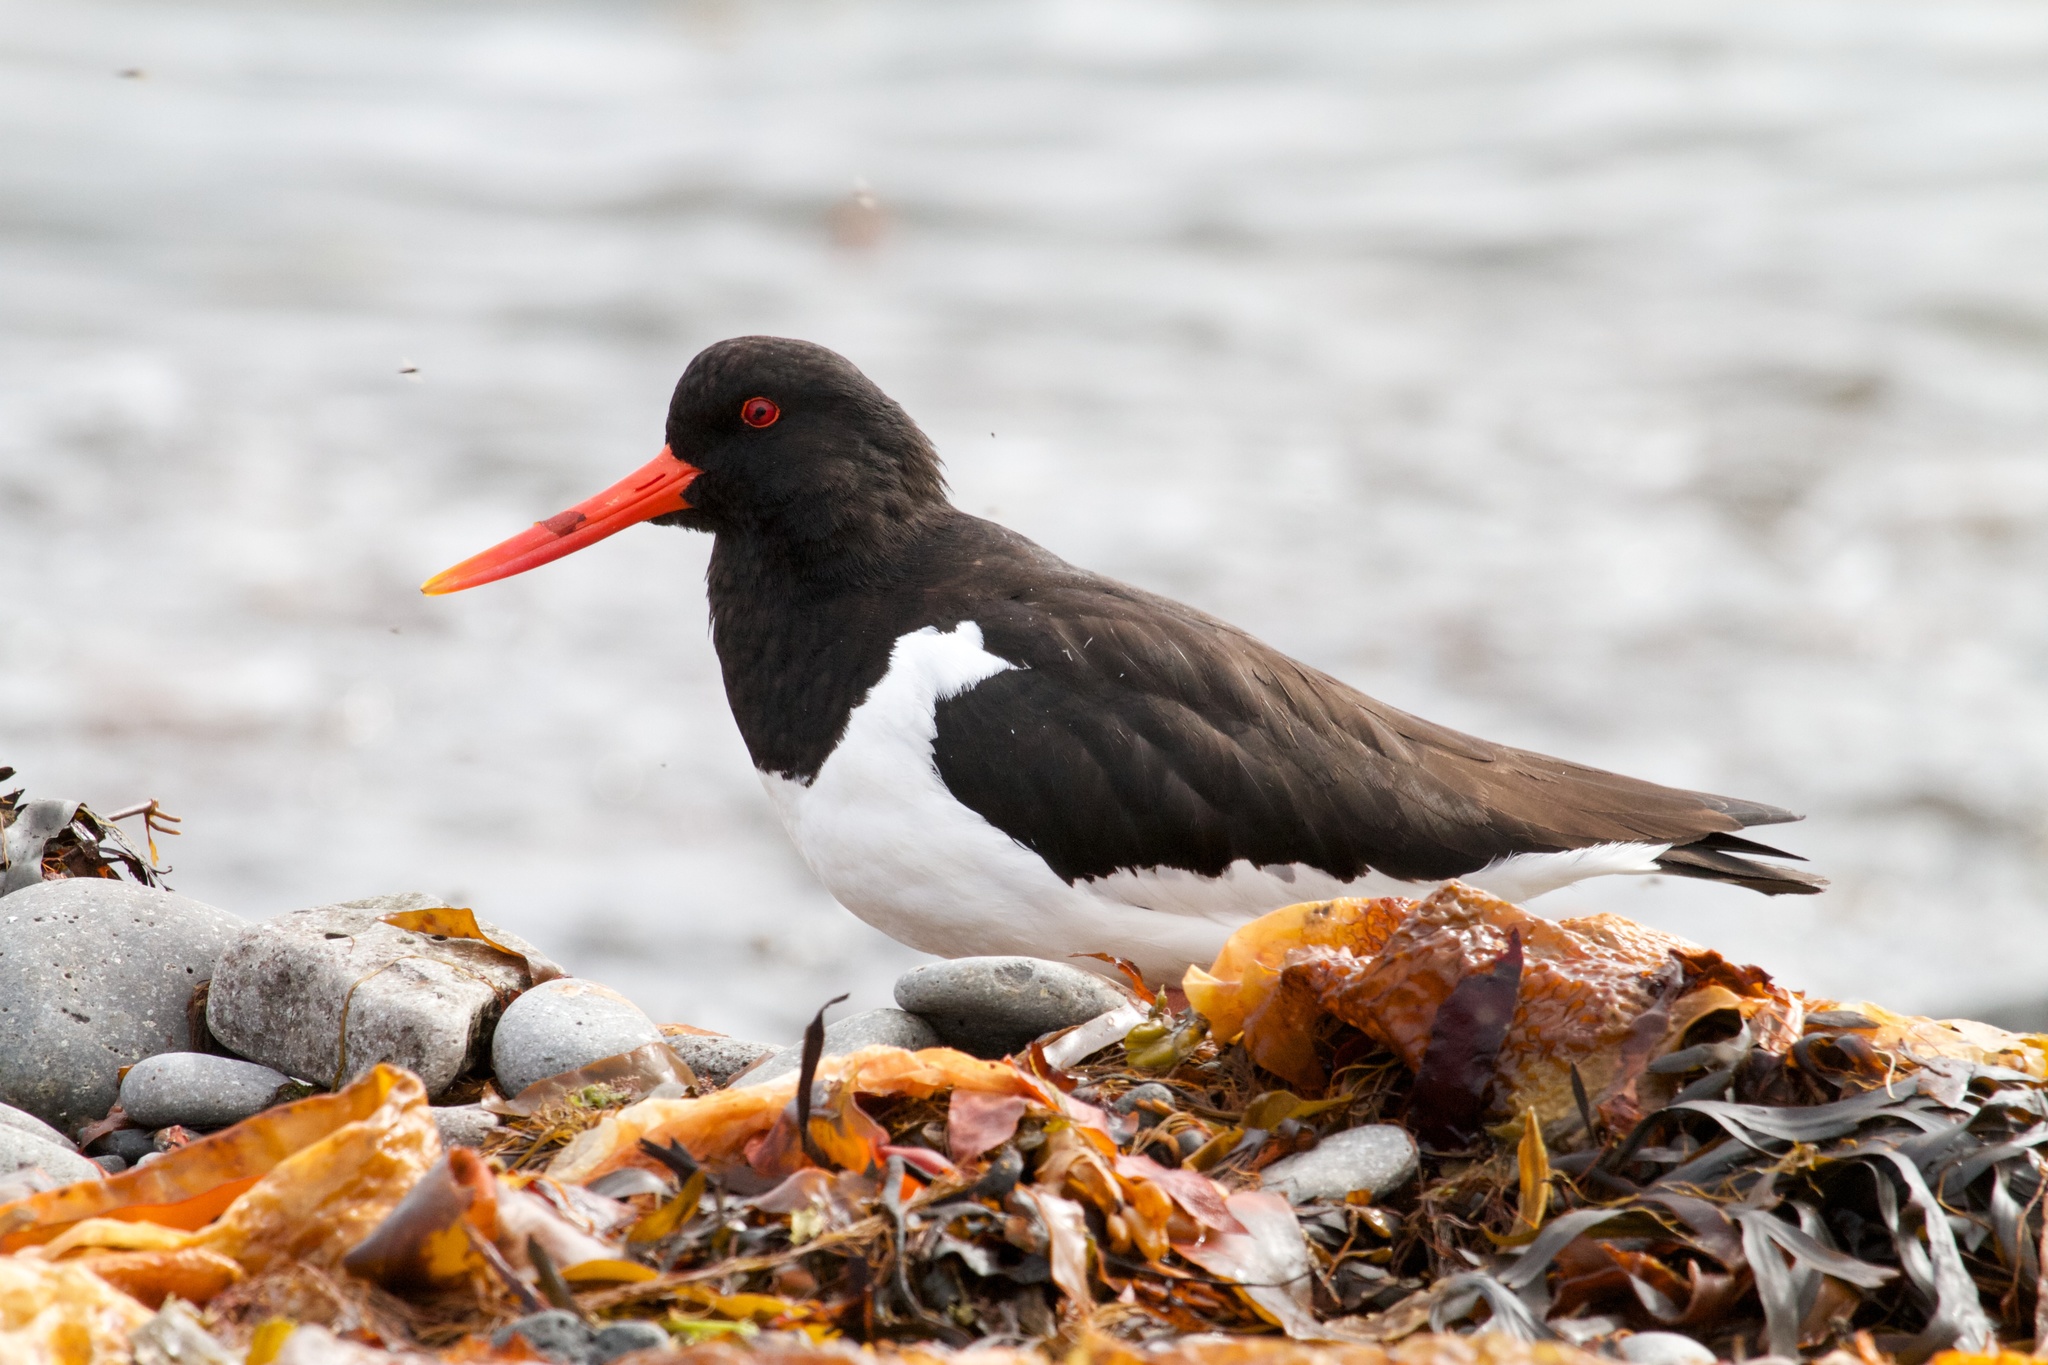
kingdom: Animalia
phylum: Chordata
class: Aves
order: Charadriiformes
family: Haematopodidae
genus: Haematopus
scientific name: Haematopus ostralegus
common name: Eurasian oystercatcher
